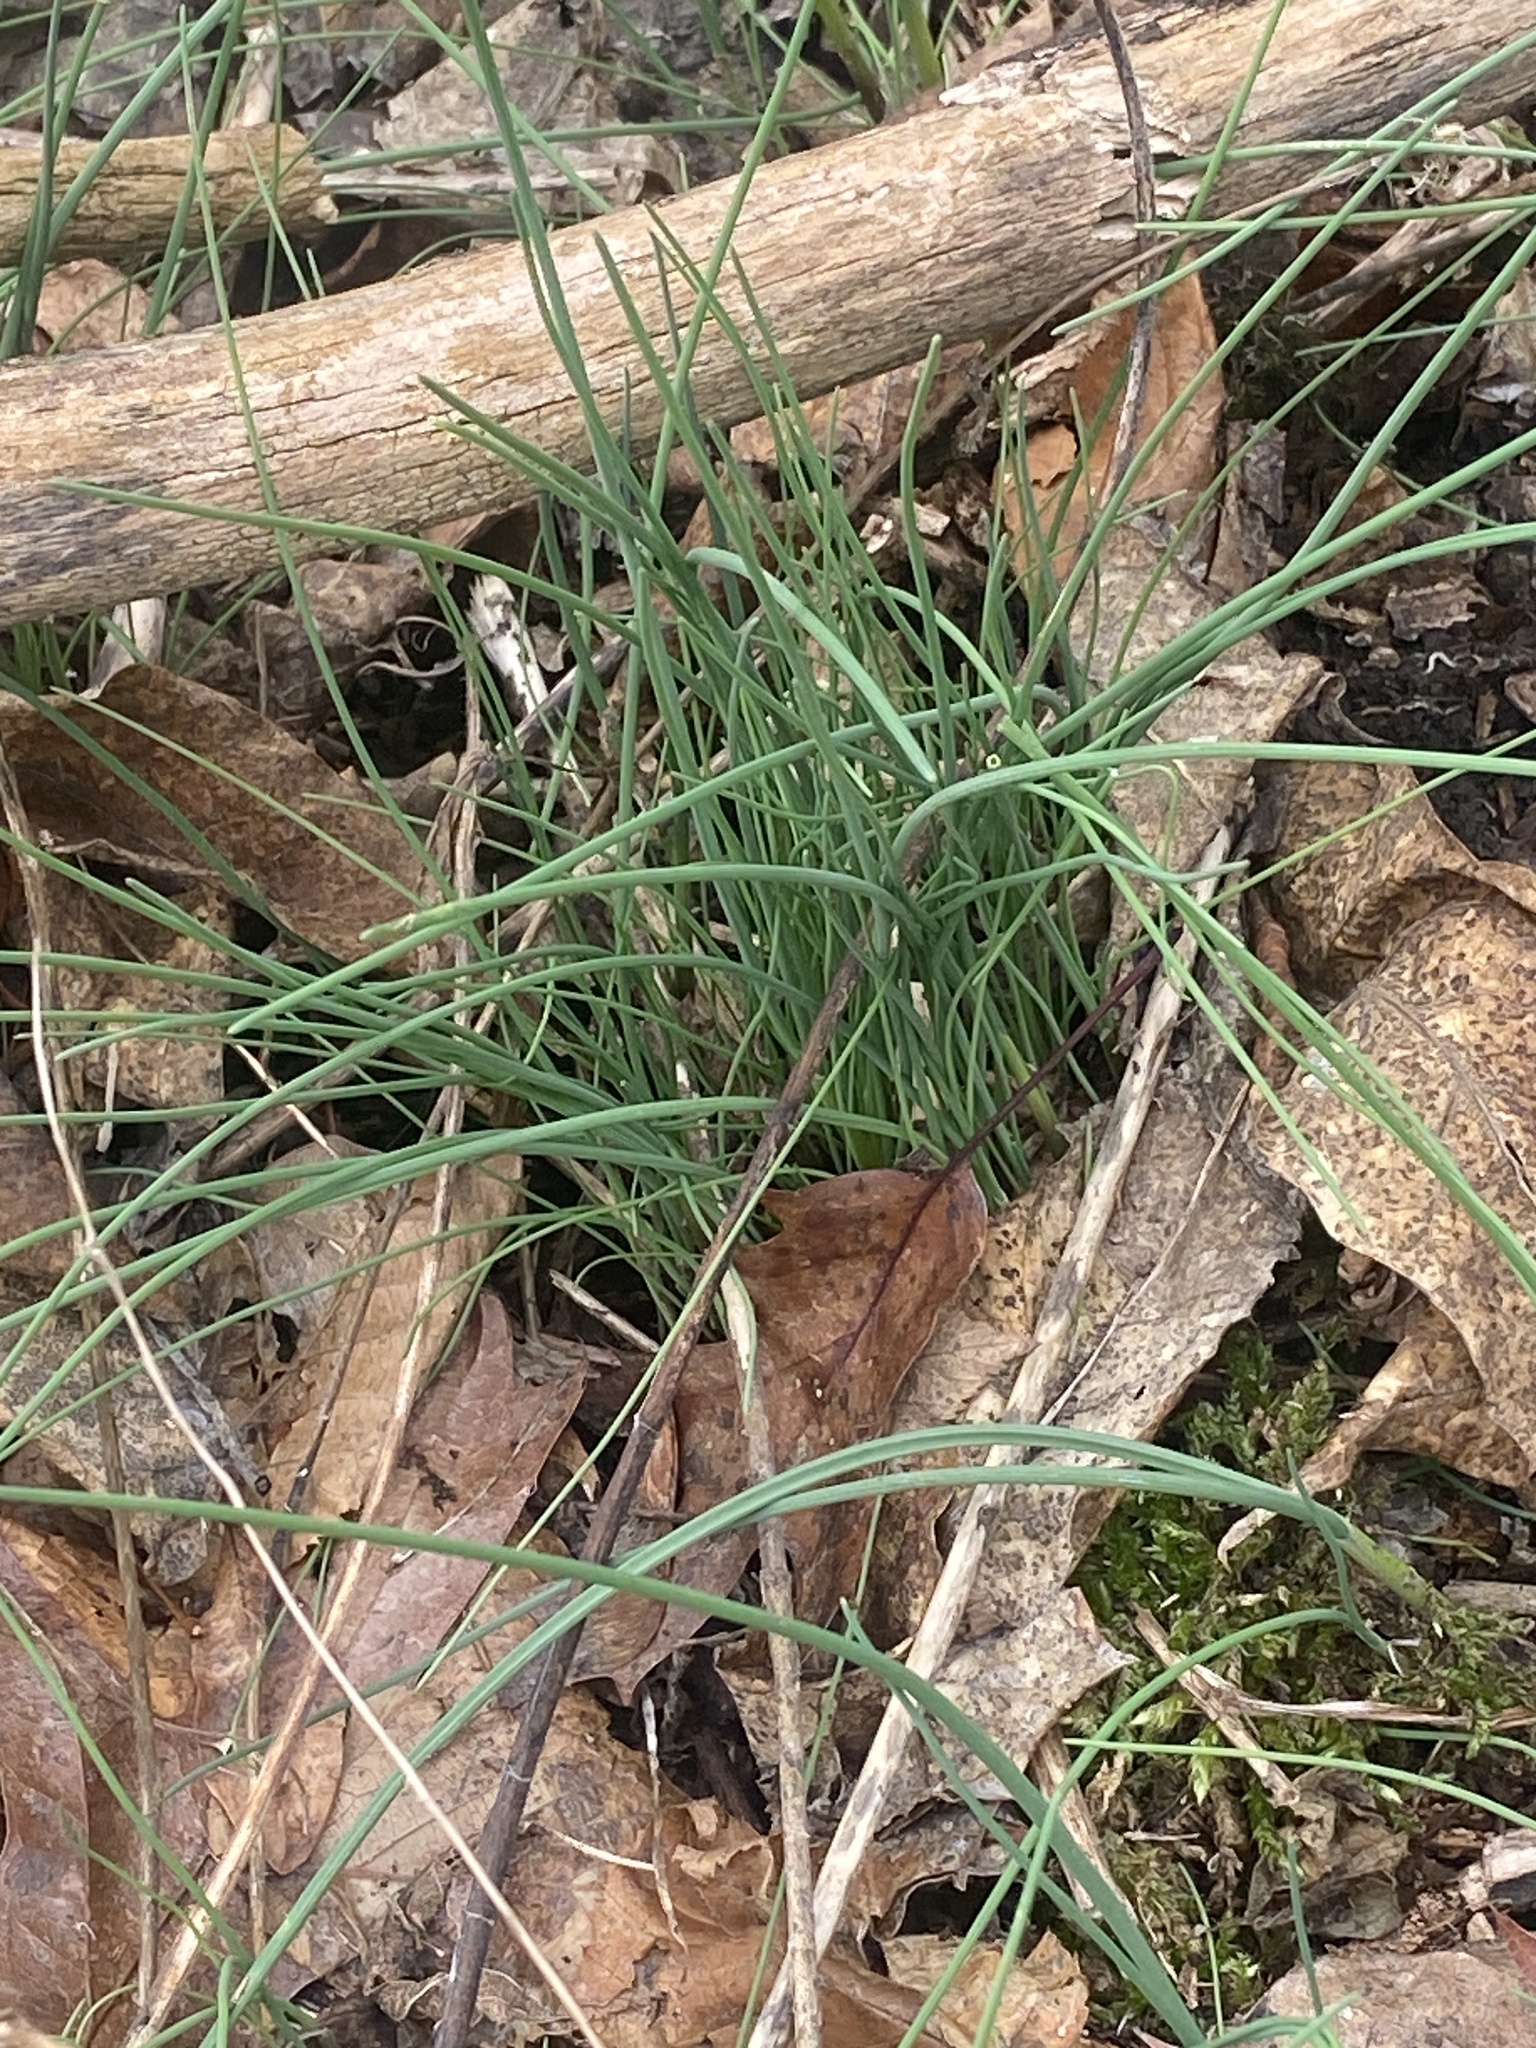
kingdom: Plantae
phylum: Tracheophyta
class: Liliopsida
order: Asparagales
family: Amaryllidaceae
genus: Allium
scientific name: Allium vineale
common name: Crow garlic
